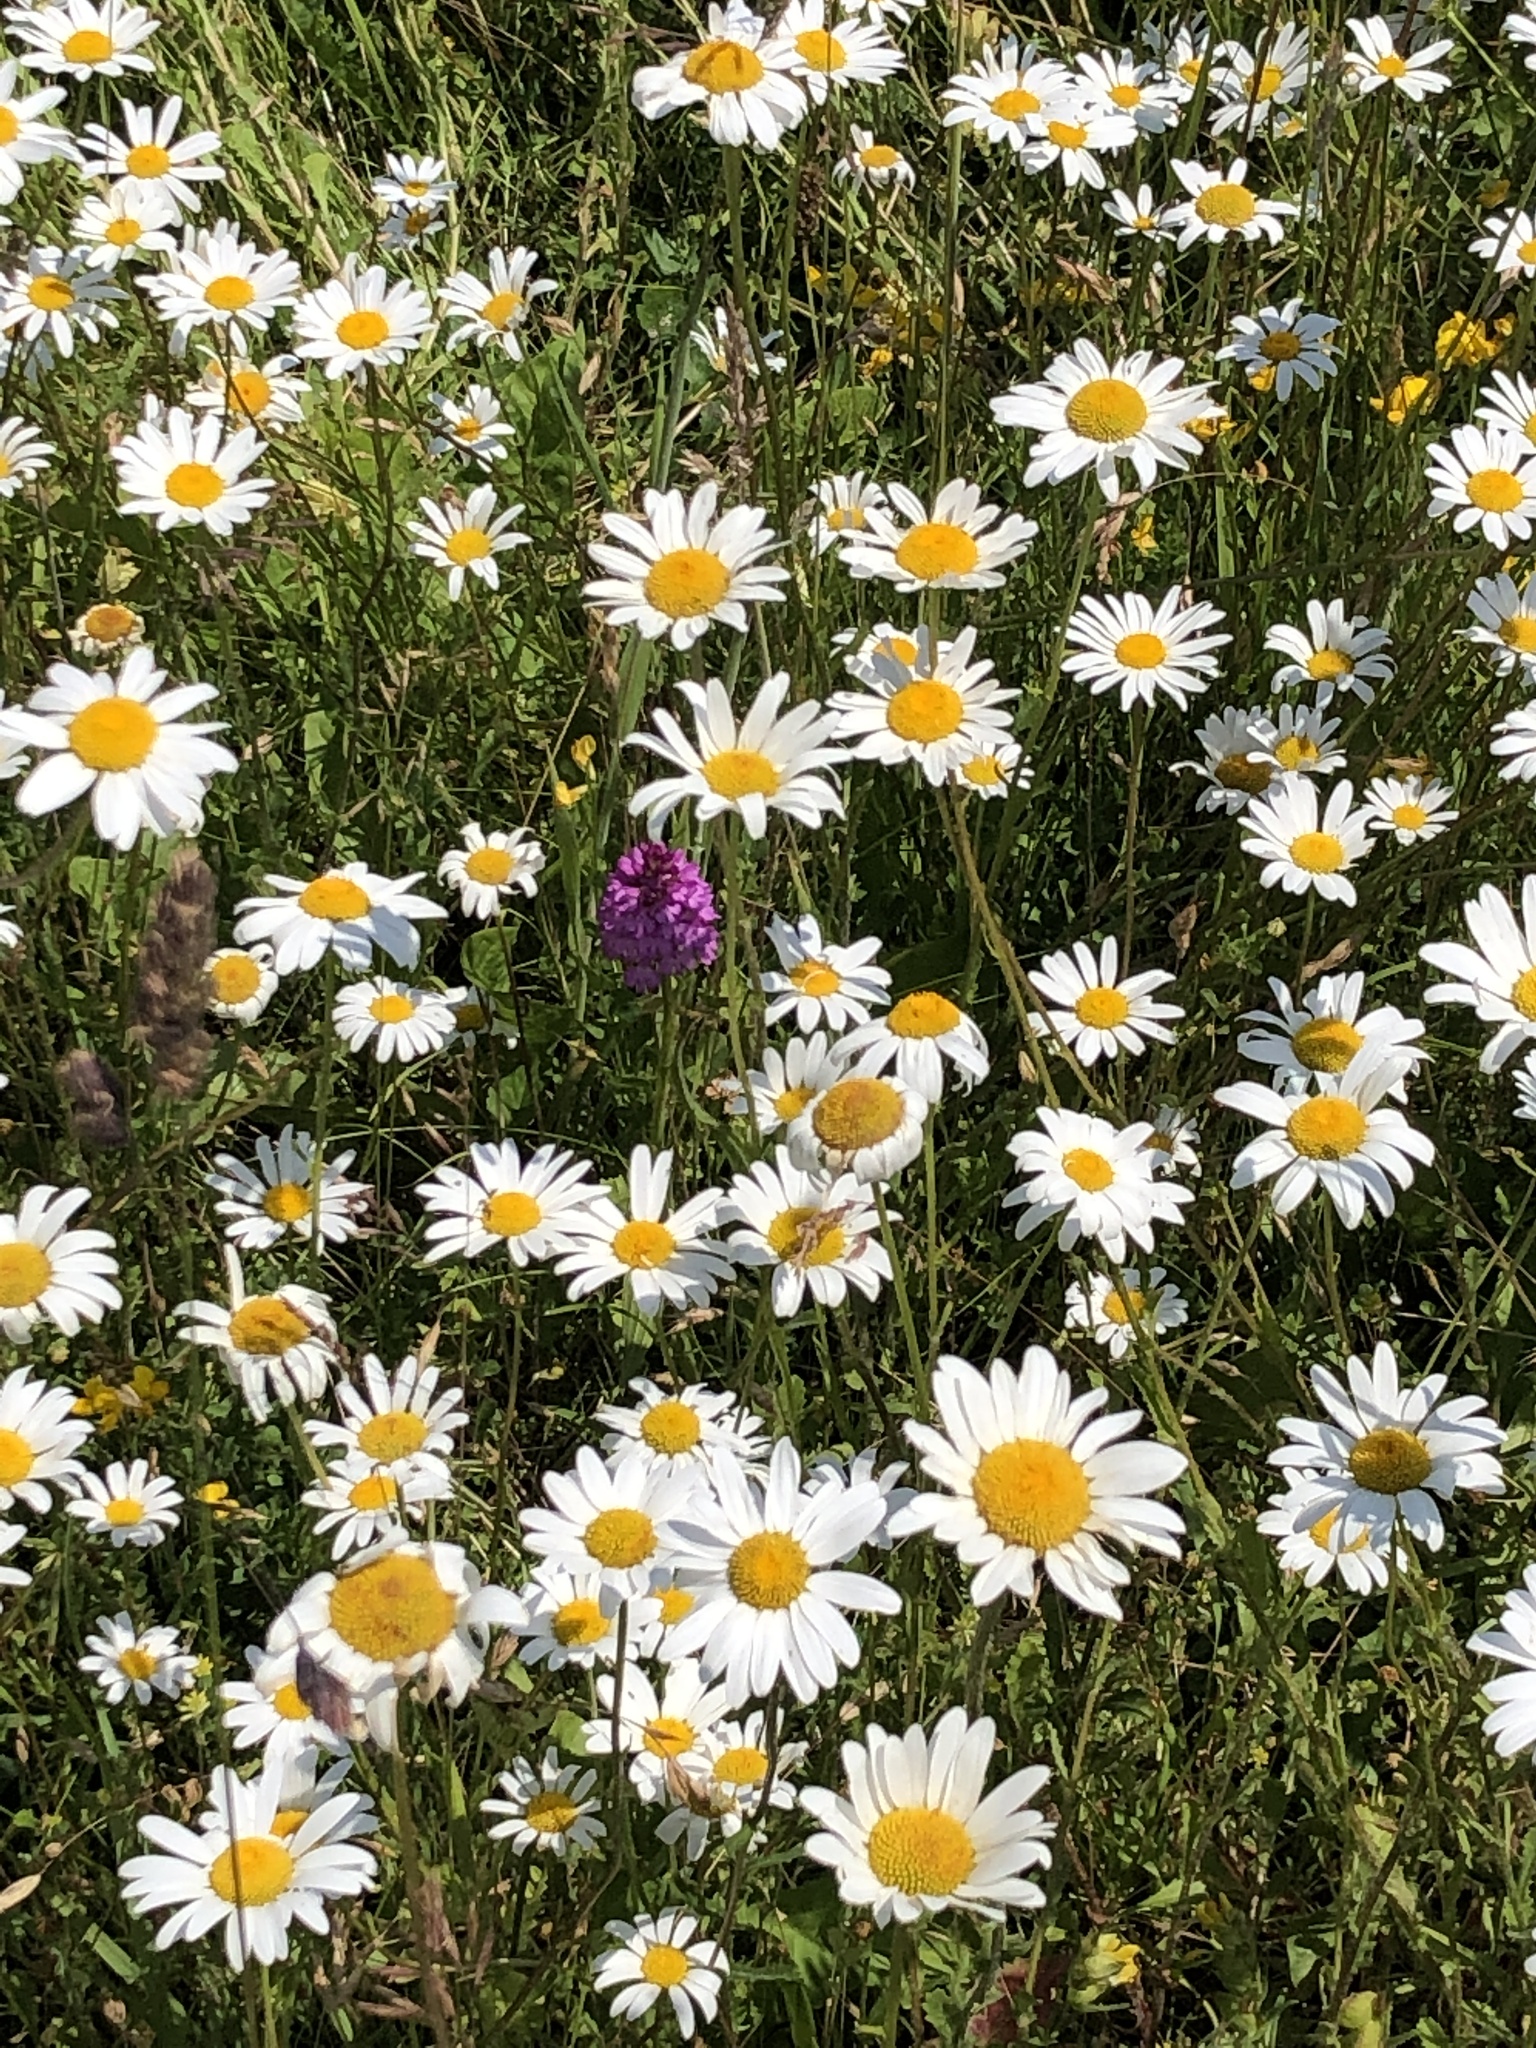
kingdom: Plantae
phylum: Tracheophyta
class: Liliopsida
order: Asparagales
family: Orchidaceae
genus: Anacamptis
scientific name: Anacamptis pyramidalis
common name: Pyramidal orchid
